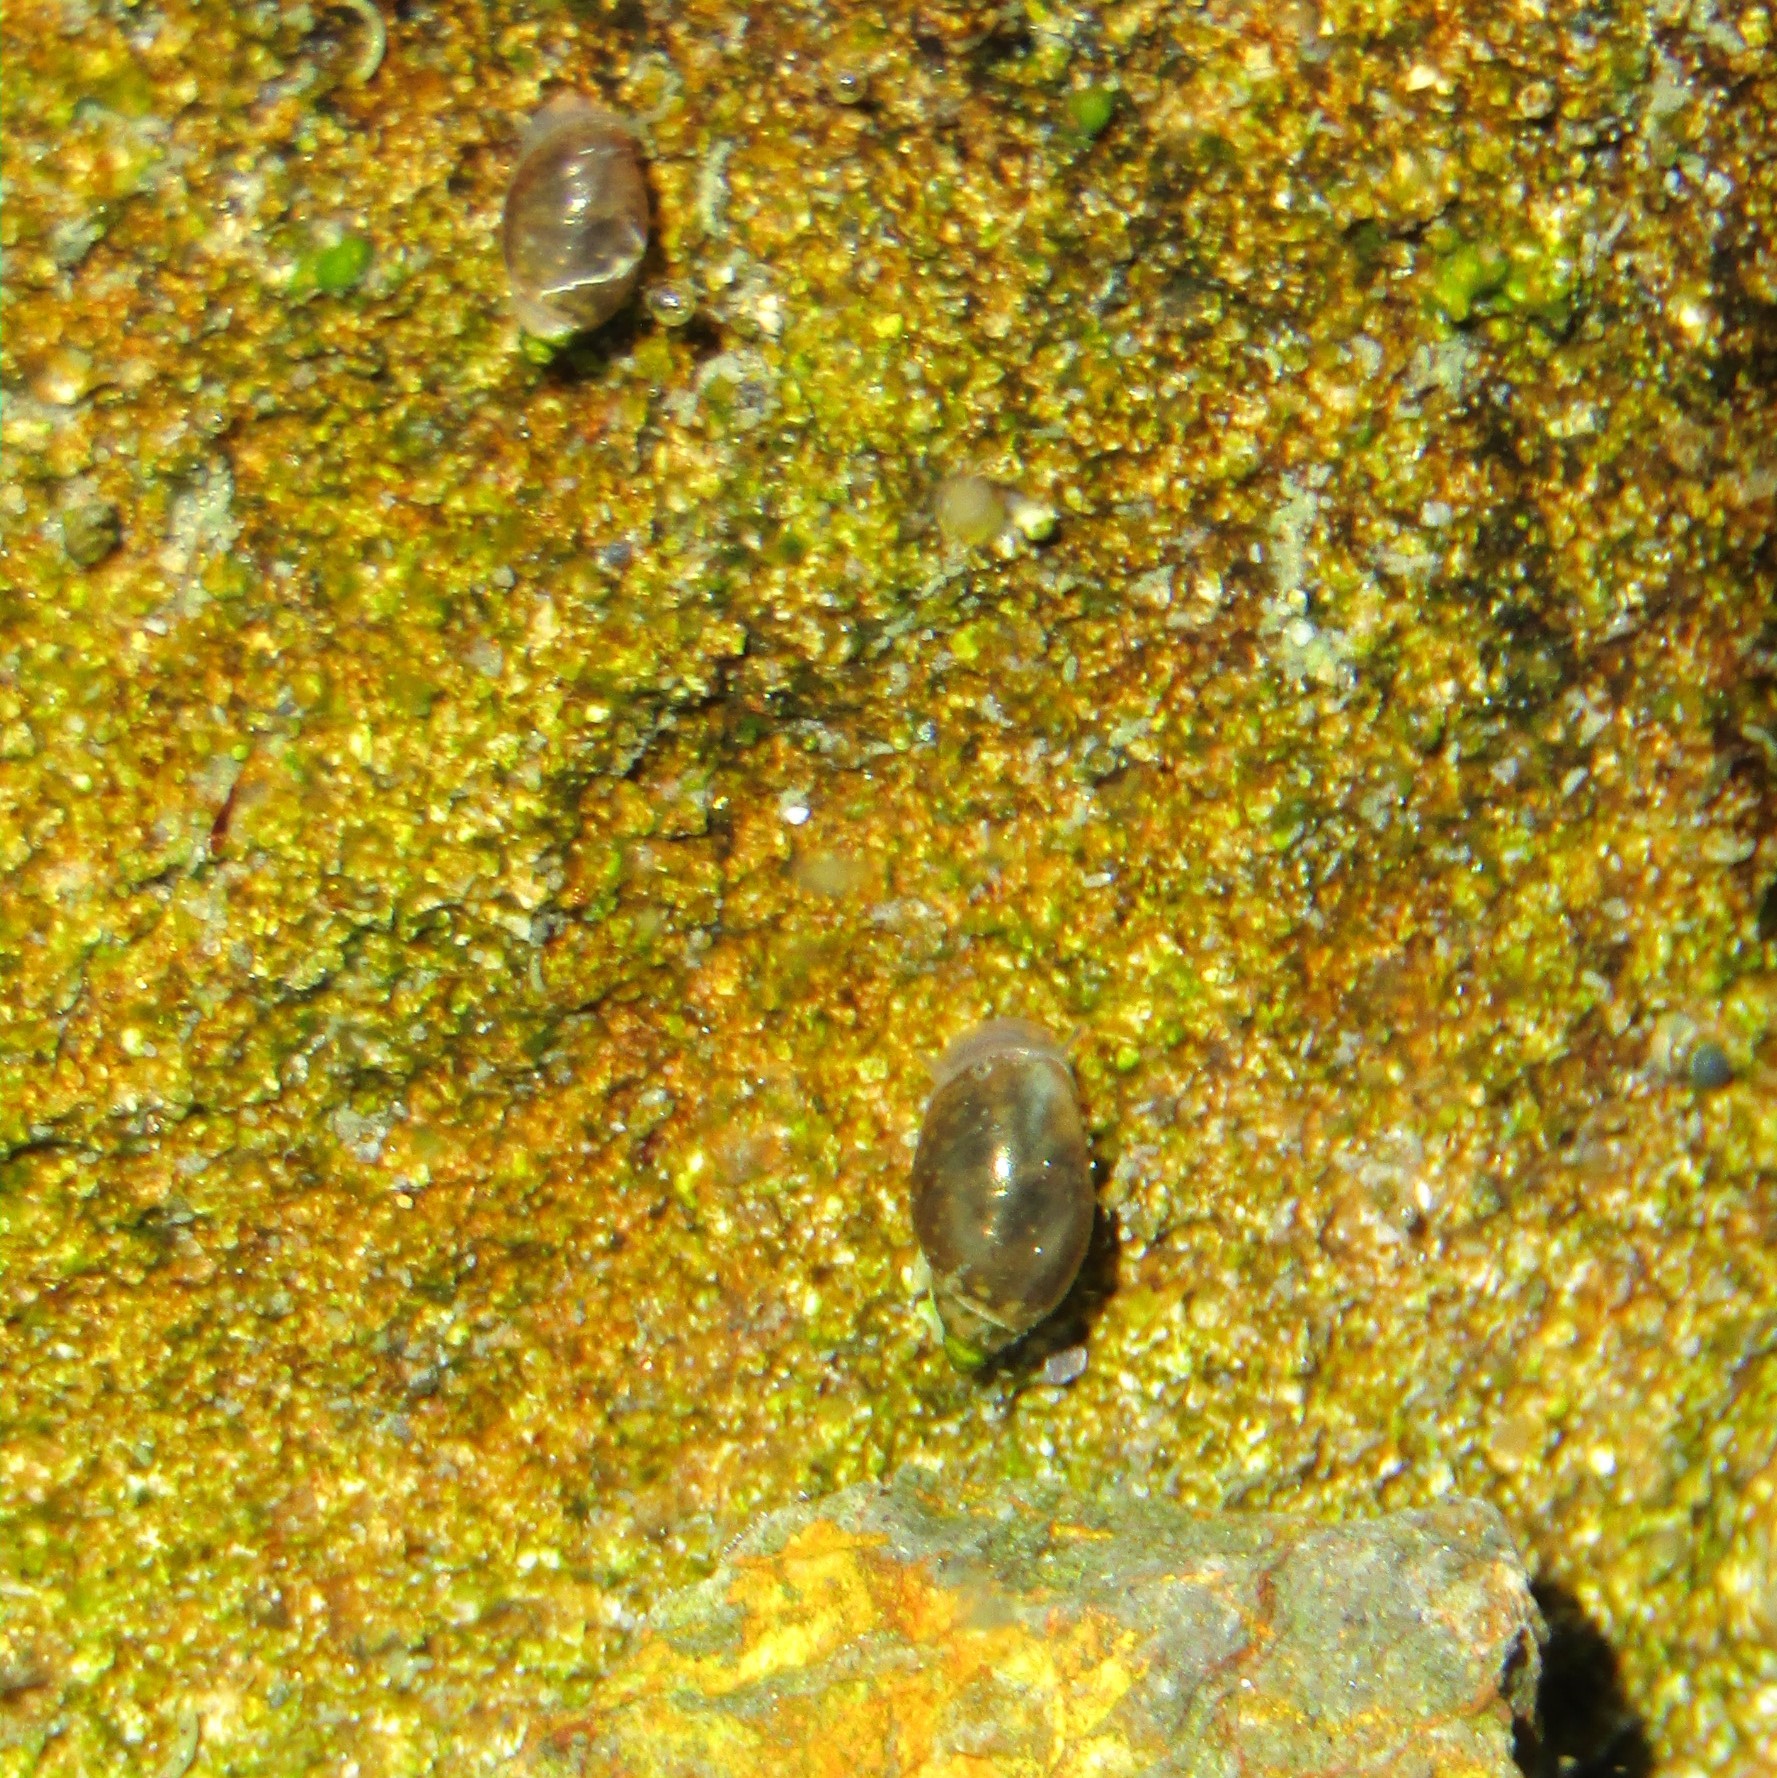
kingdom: Animalia
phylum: Mollusca
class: Gastropoda
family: Physidae
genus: Physella
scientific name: Physella acuta
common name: European physa
